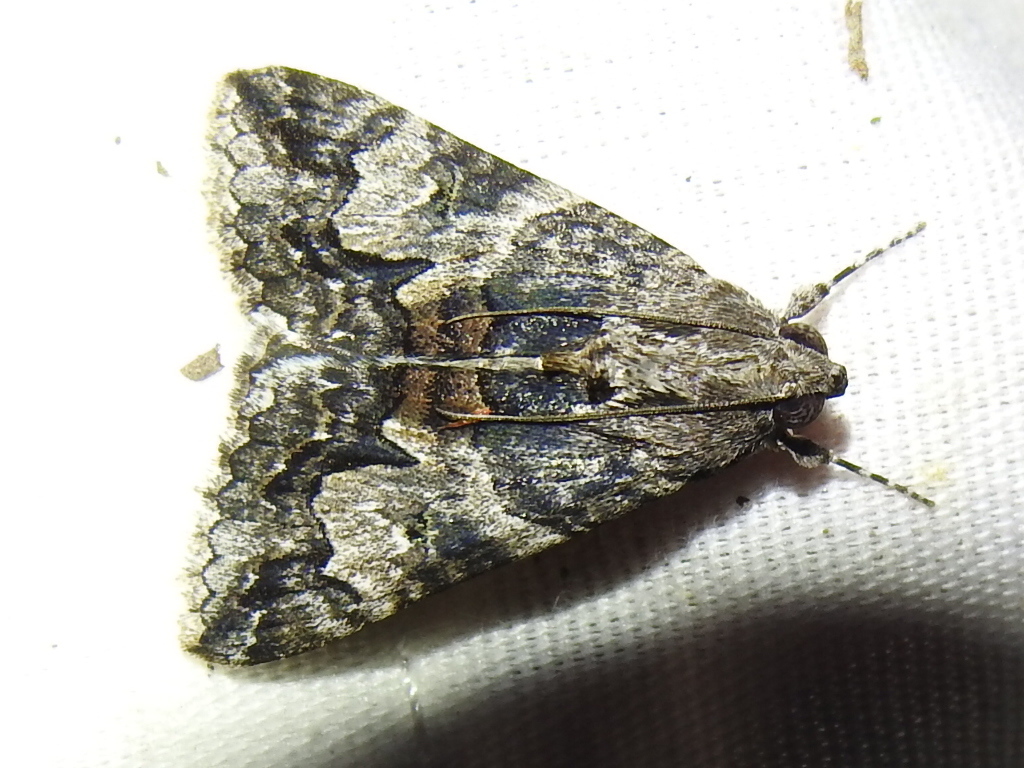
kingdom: Animalia
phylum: Arthropoda
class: Insecta
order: Lepidoptera
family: Erebidae
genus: Melipotis
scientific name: Melipotis jucunda
